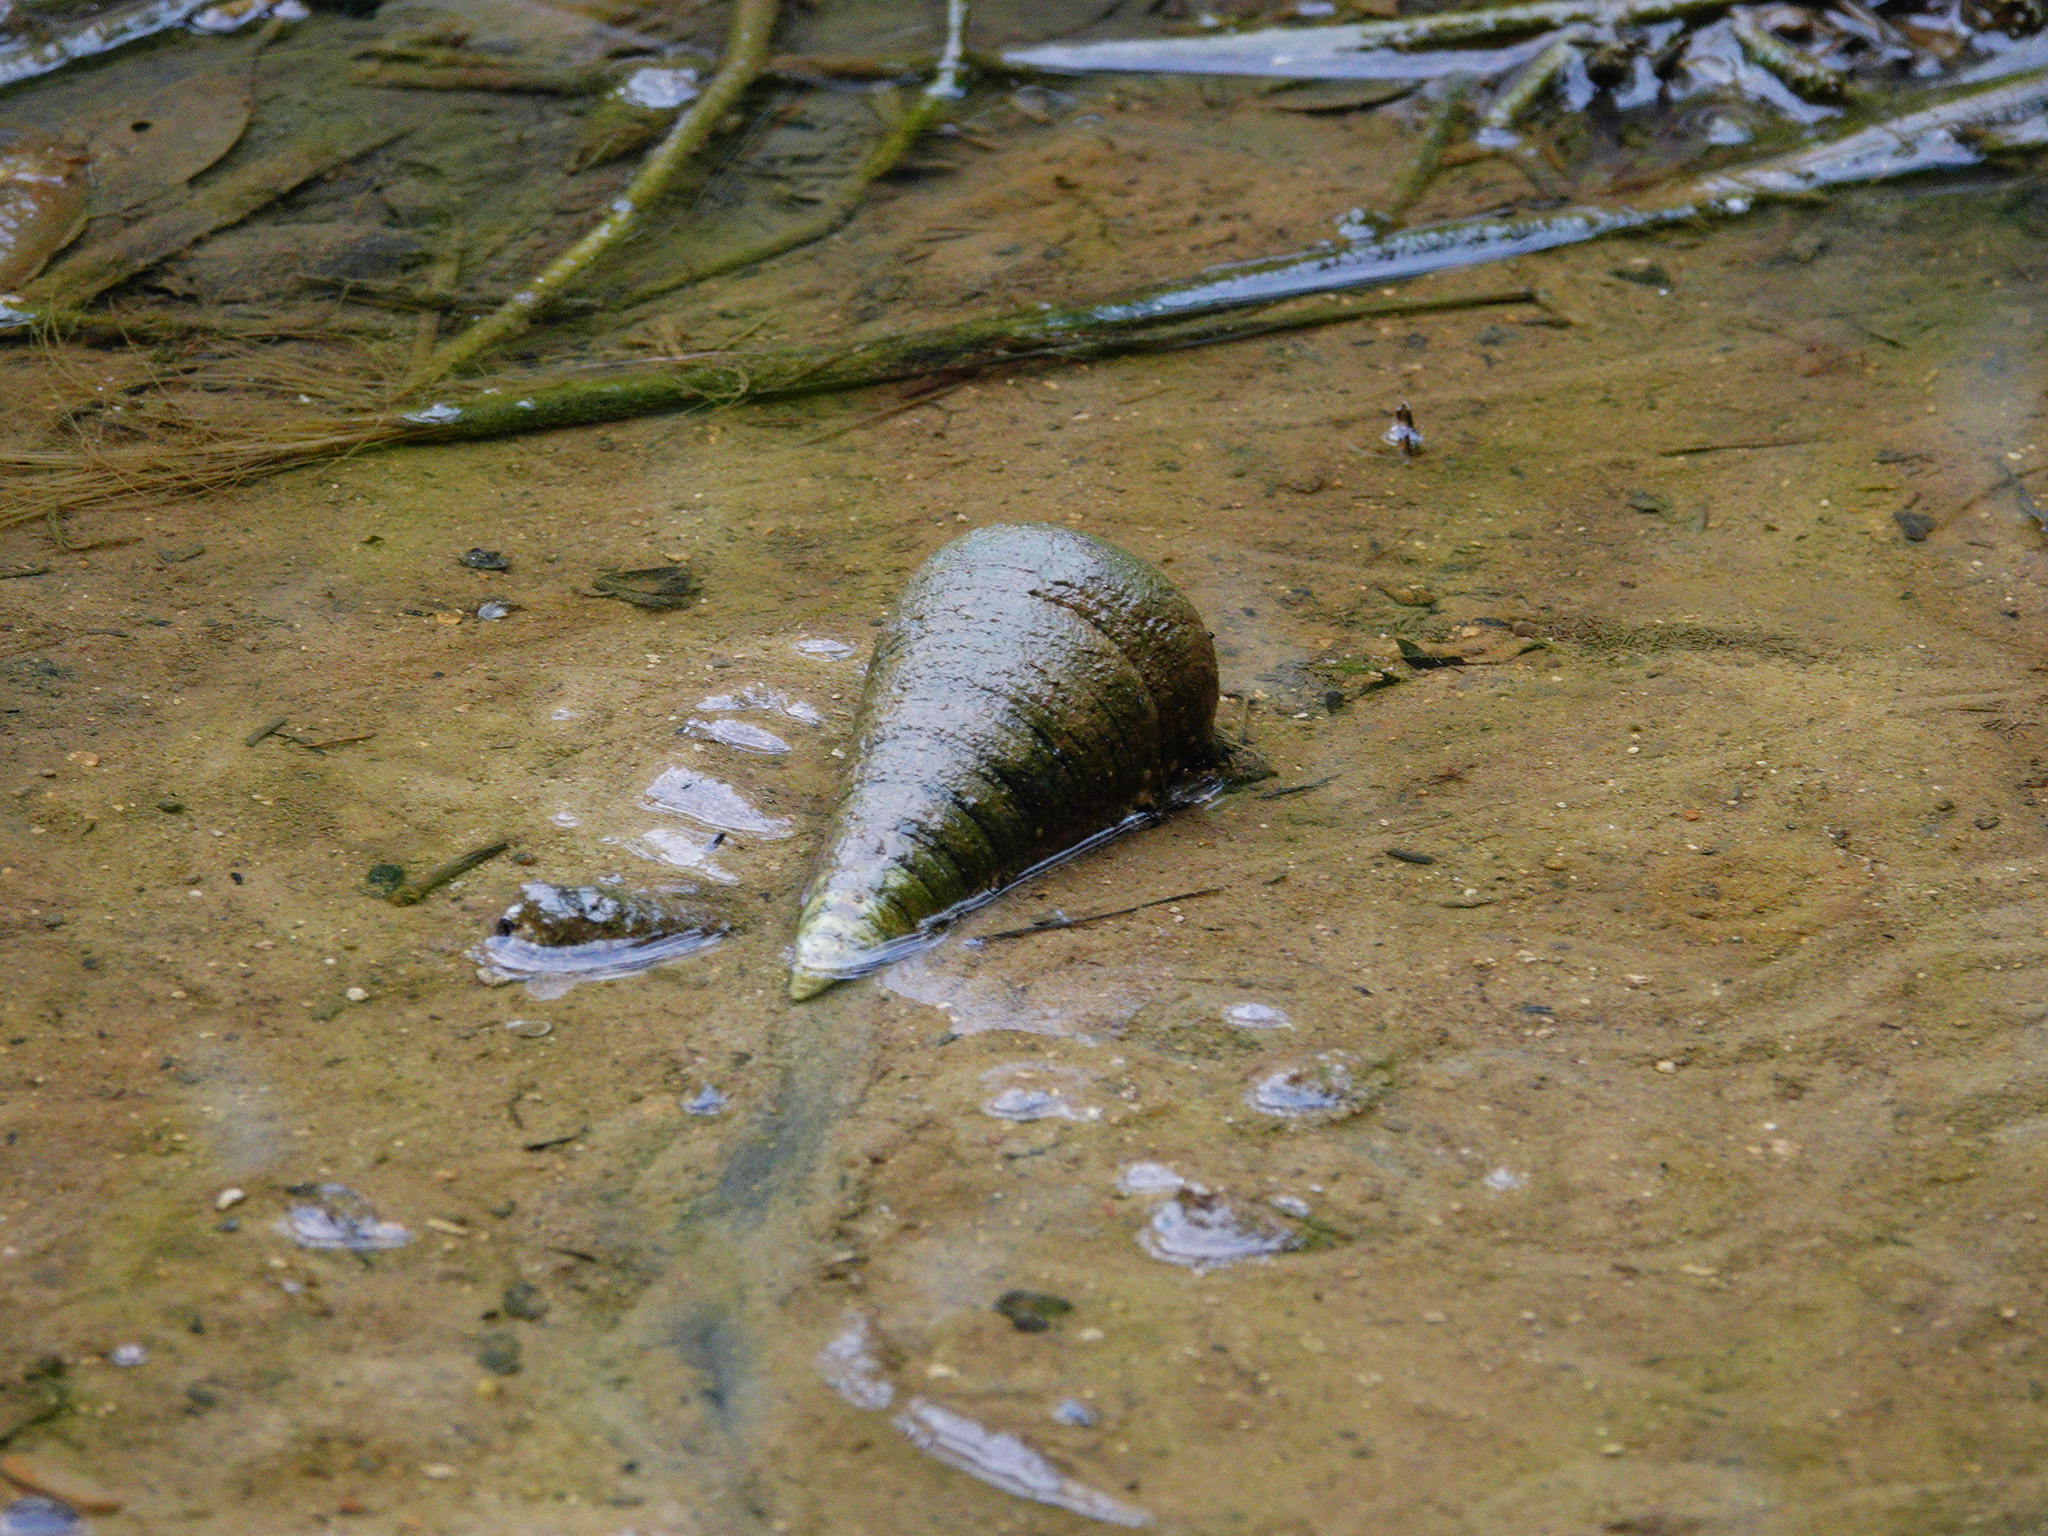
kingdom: Animalia
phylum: Mollusca
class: Gastropoda
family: Potamididae
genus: Telescopium
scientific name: Telescopium telescopium
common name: Telescope creeper
